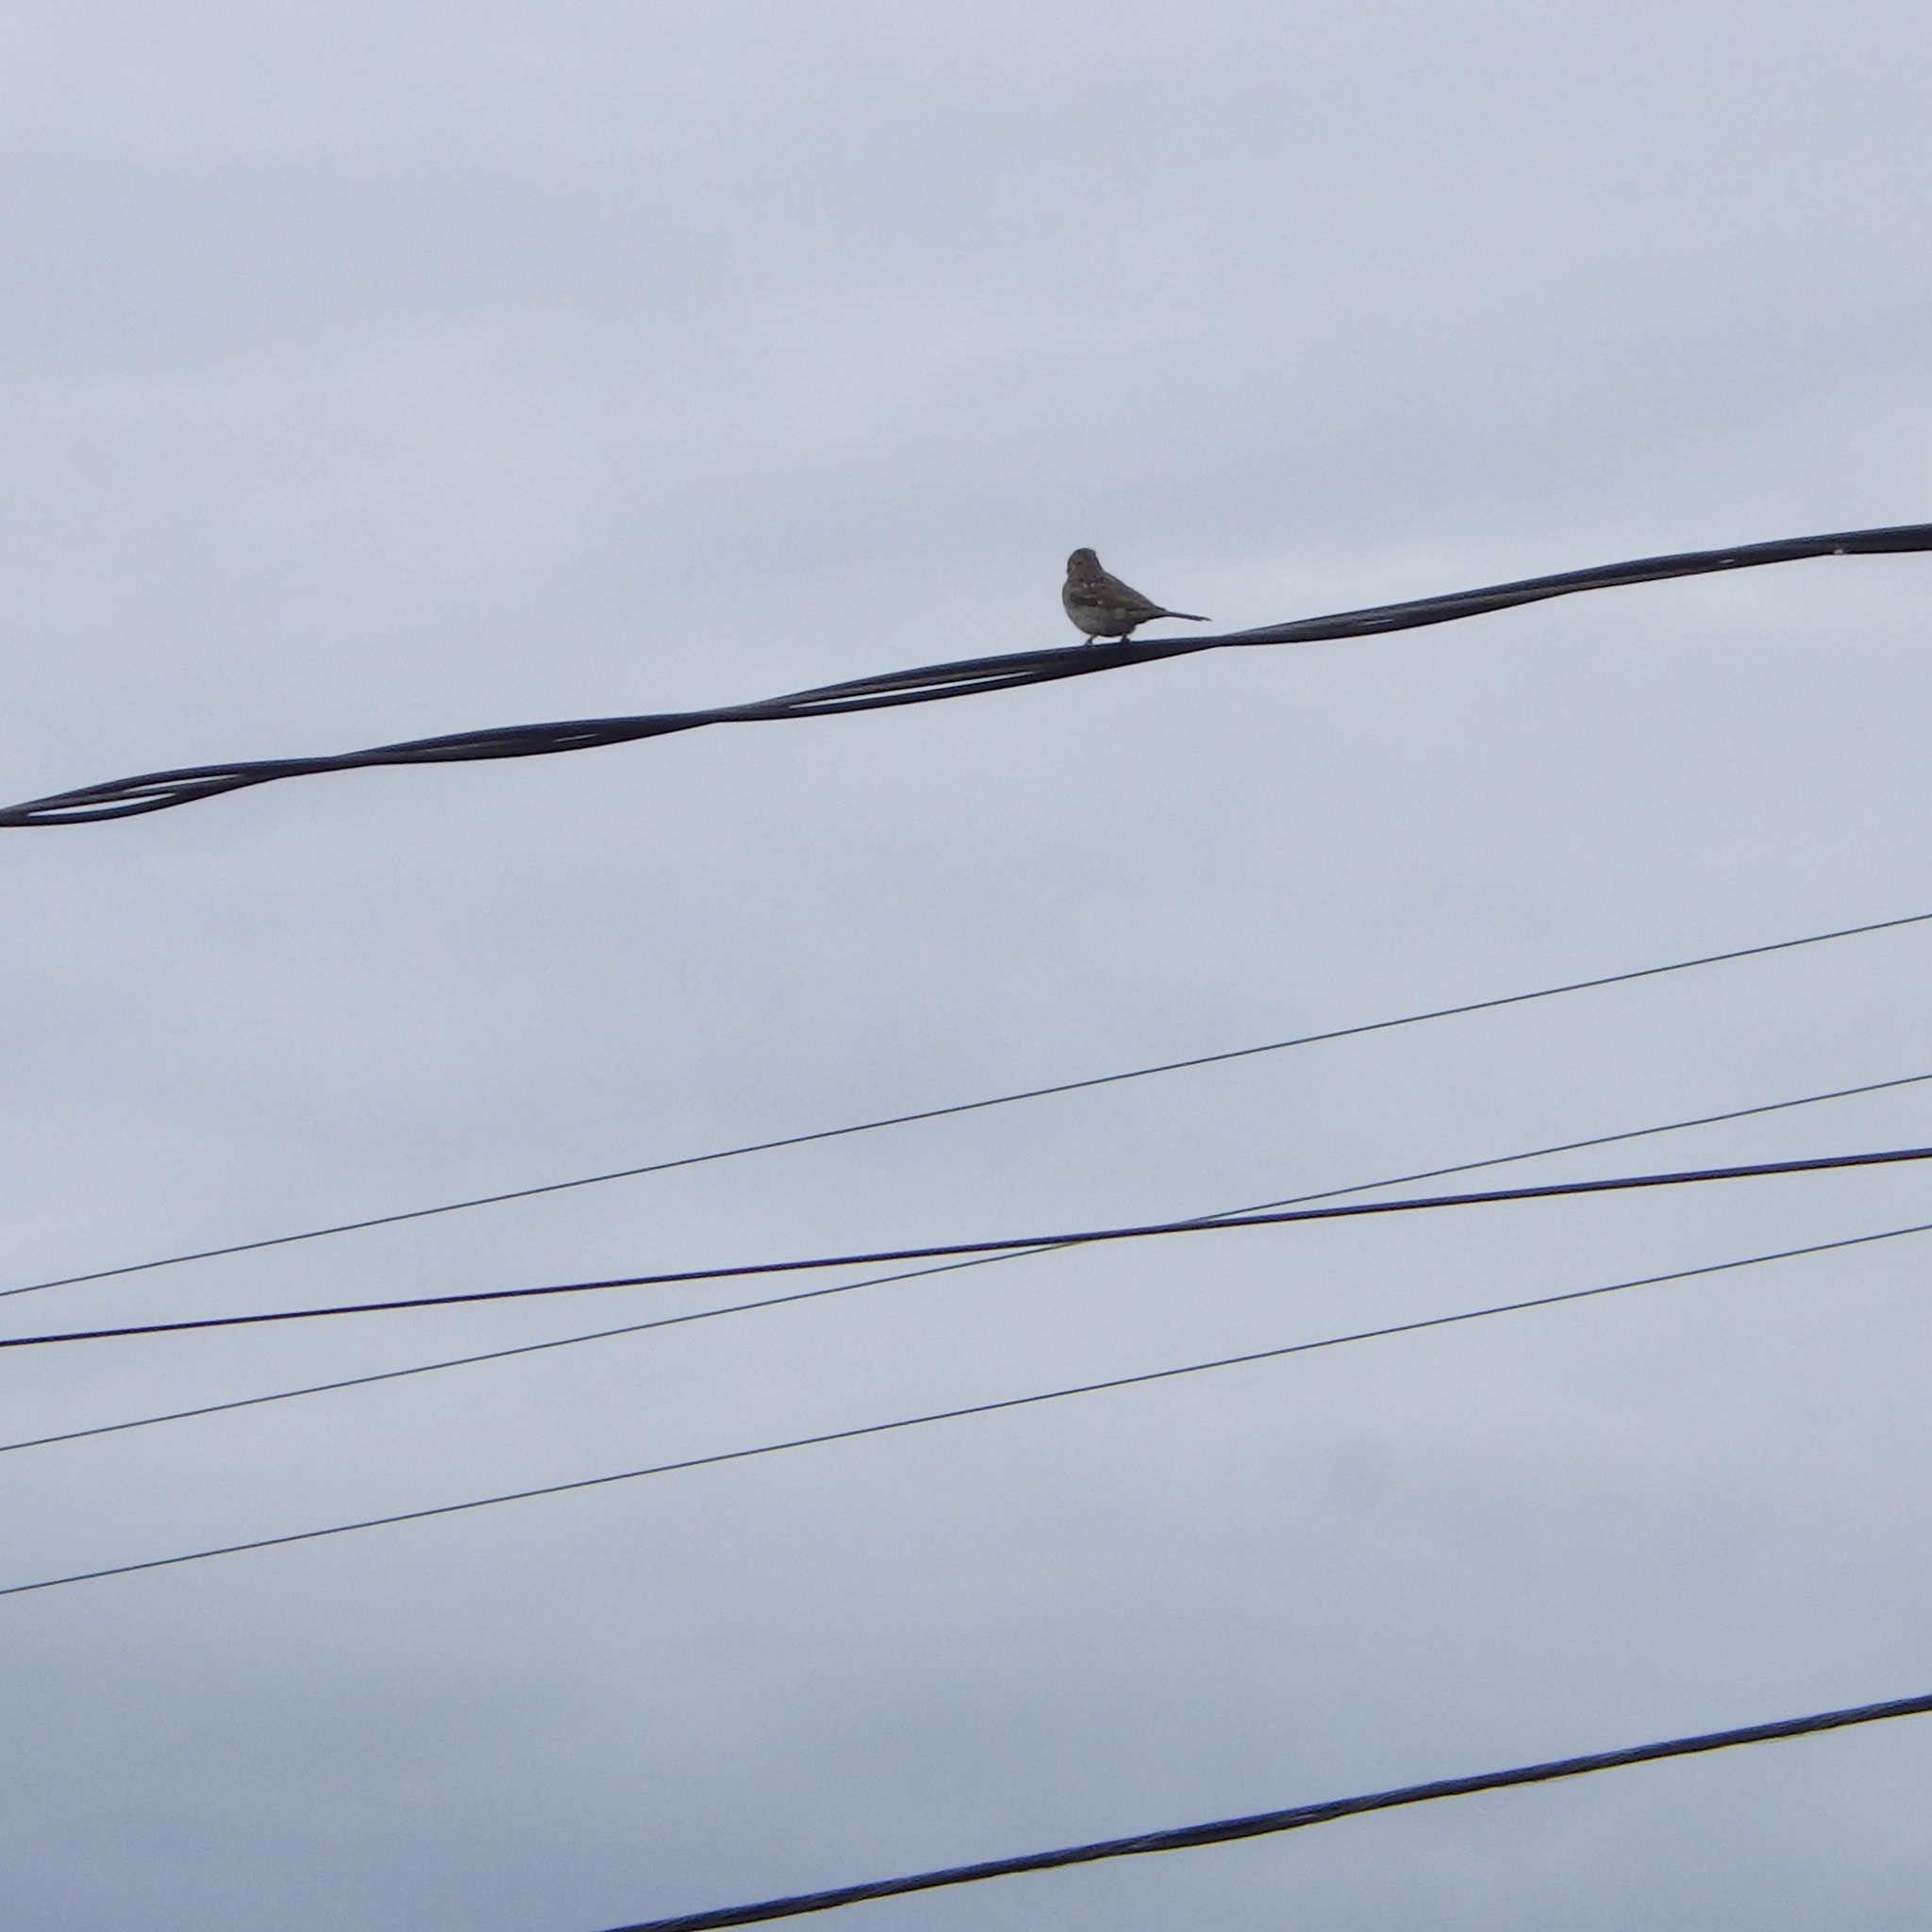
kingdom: Animalia
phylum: Chordata
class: Aves
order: Passeriformes
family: Passeridae
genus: Passer
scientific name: Passer domesticus
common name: House sparrow
